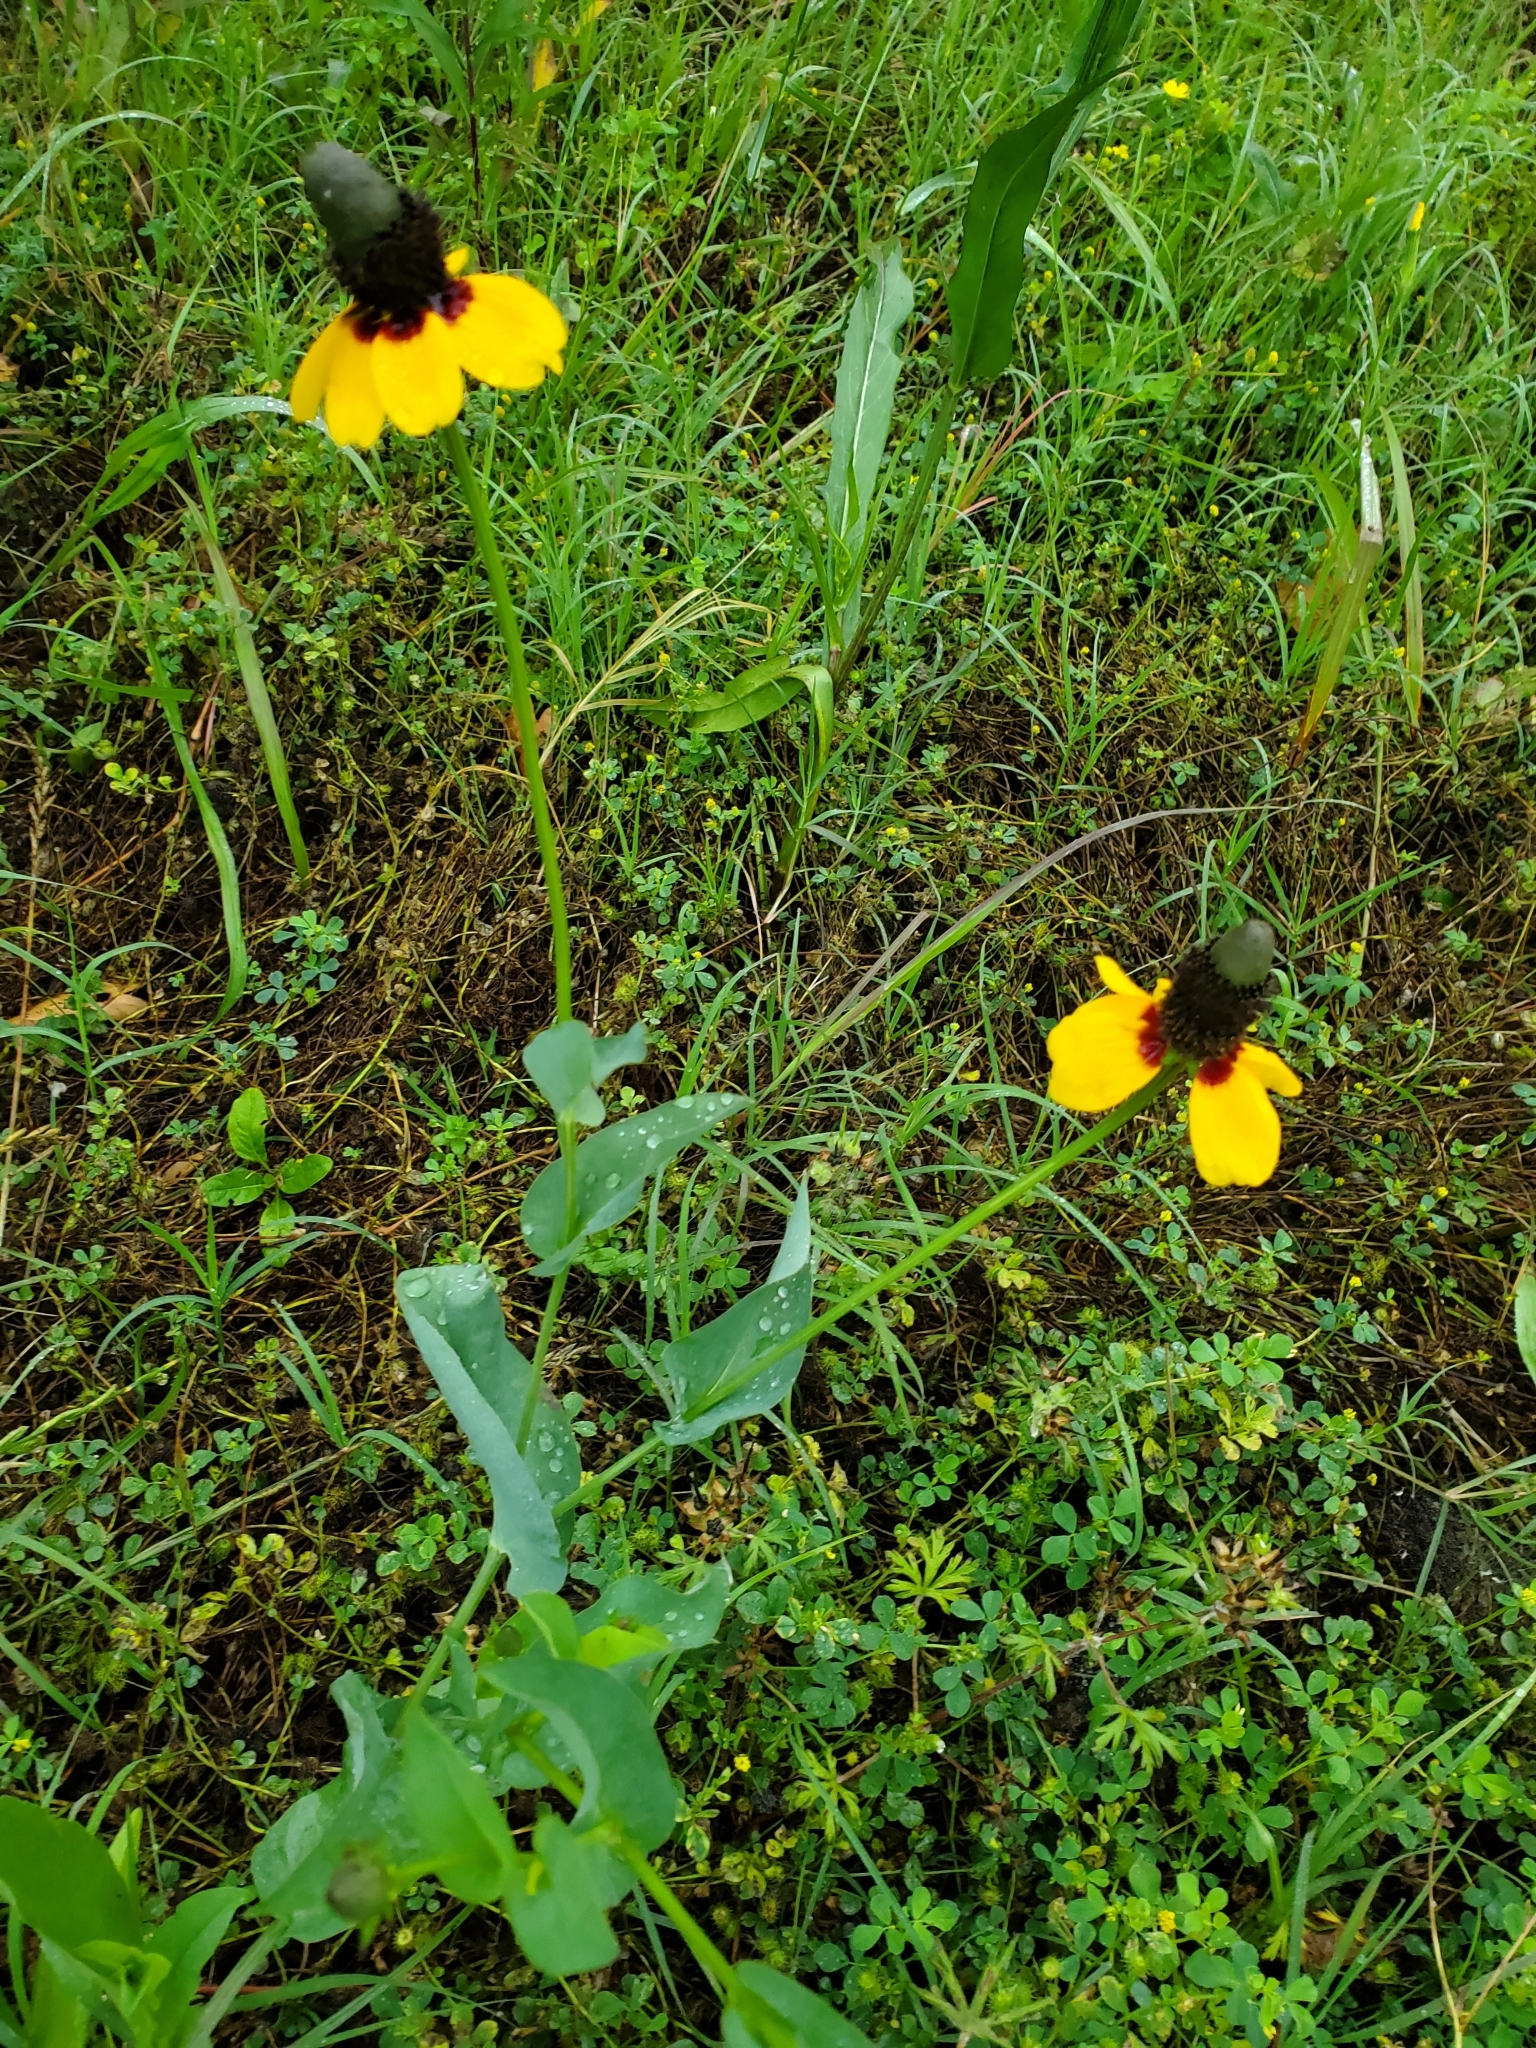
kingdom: Plantae
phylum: Tracheophyta
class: Magnoliopsida
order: Asterales
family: Asteraceae
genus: Rudbeckia
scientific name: Rudbeckia amplexicaulis
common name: Clasping-leaf coneflower
